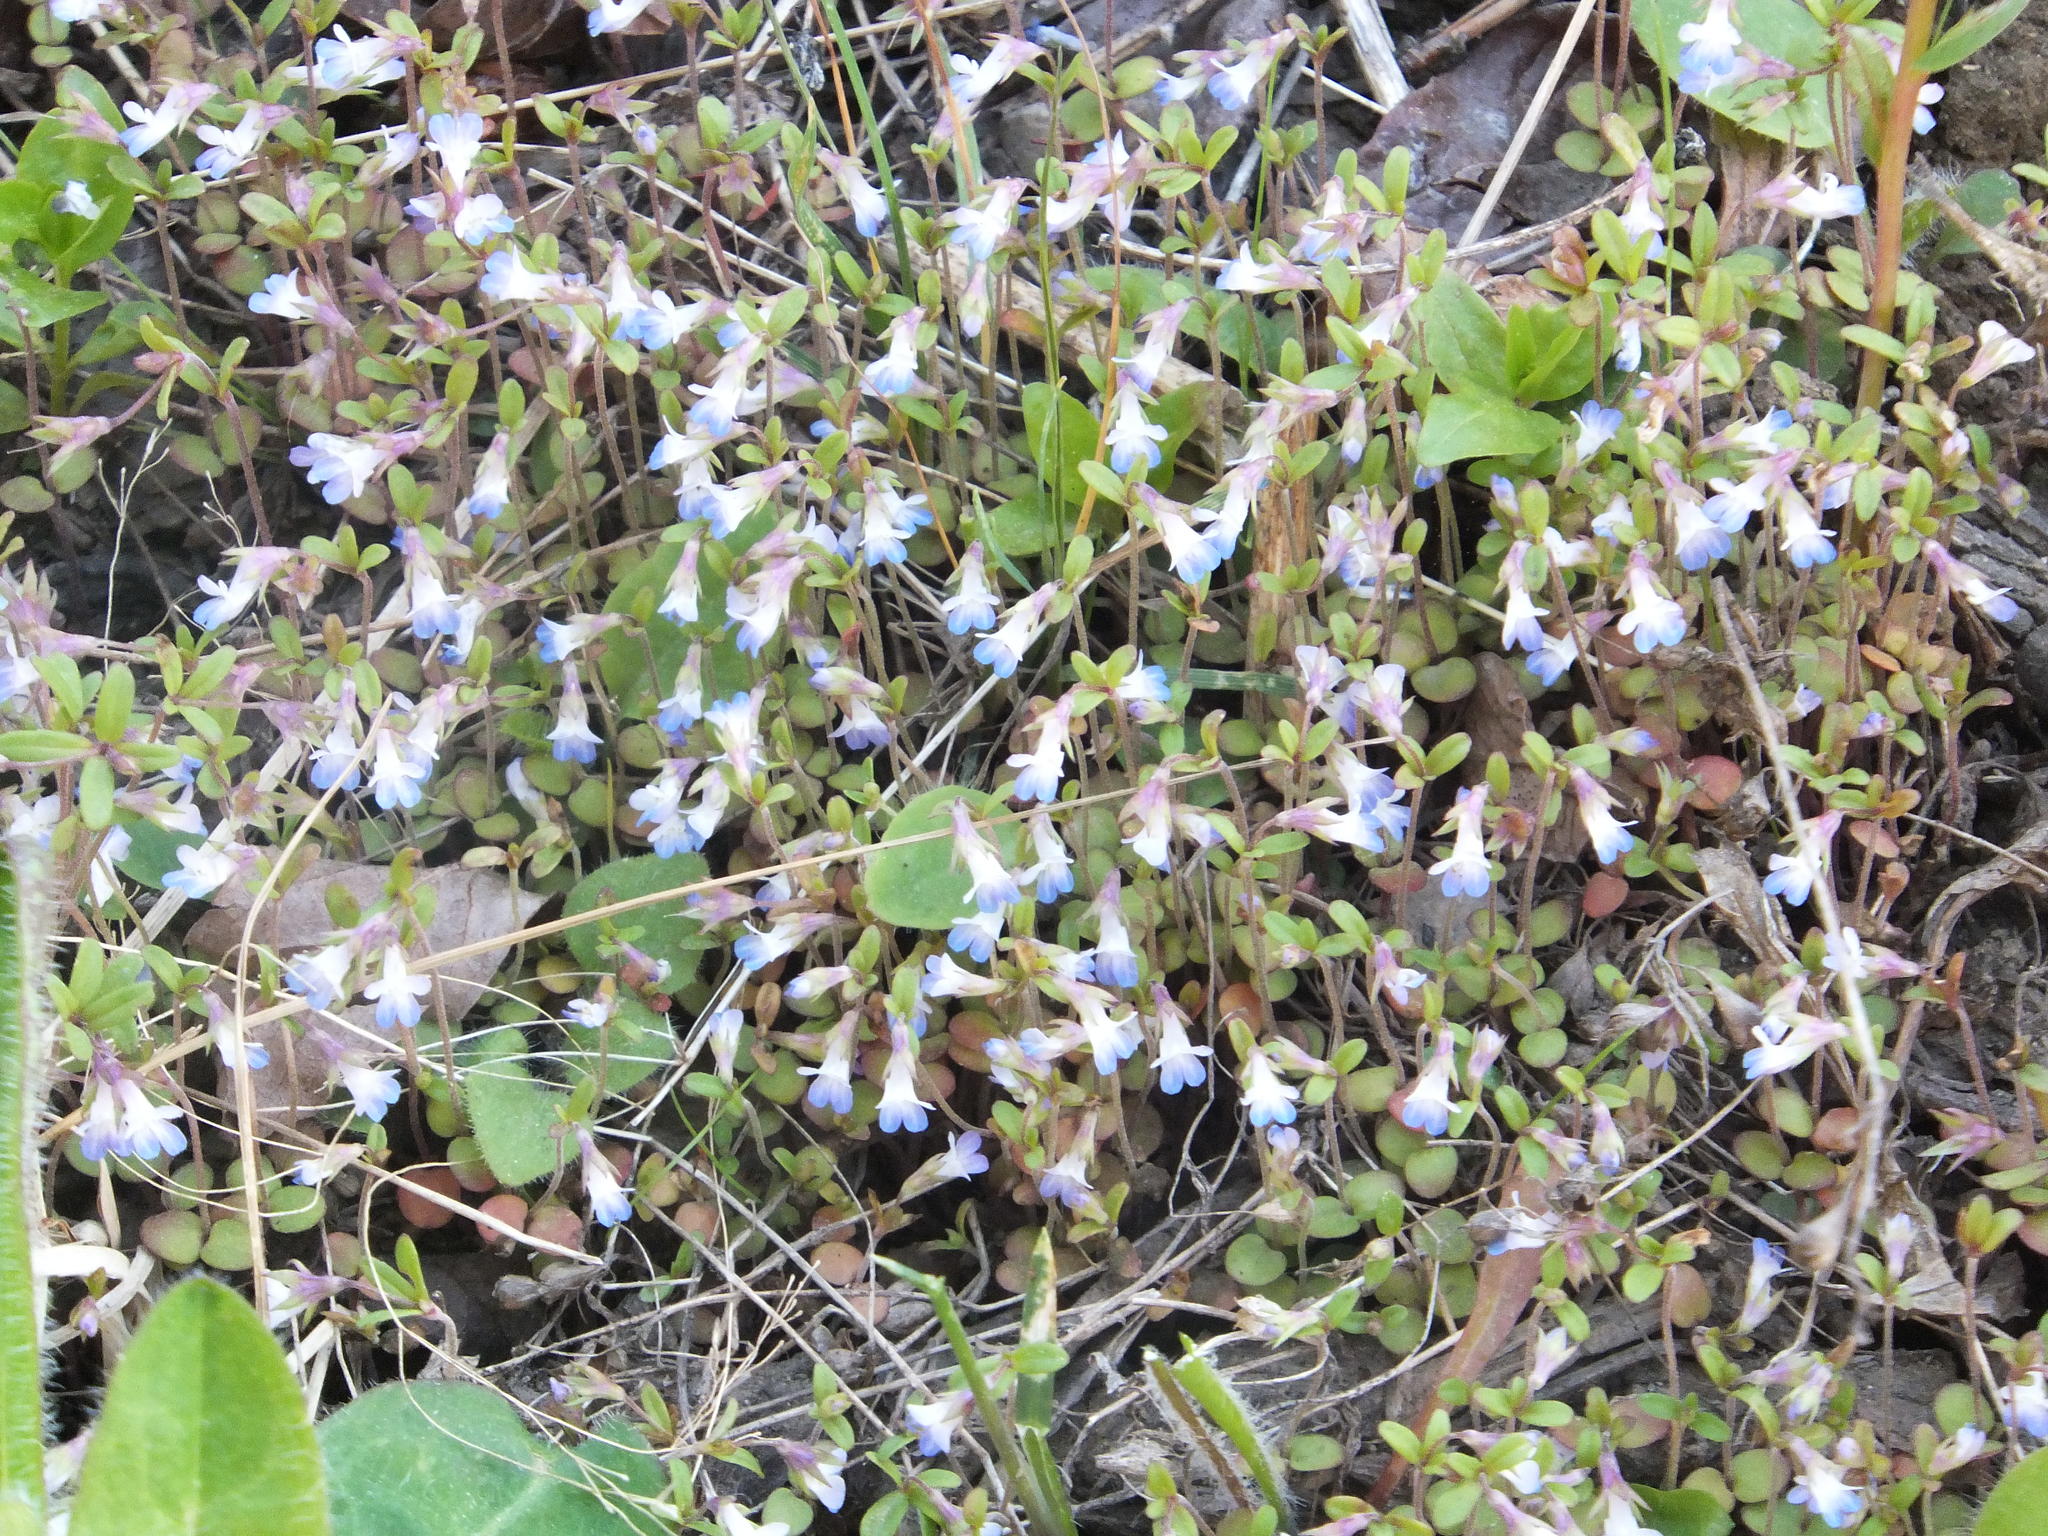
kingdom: Plantae
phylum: Tracheophyta
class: Magnoliopsida
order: Lamiales
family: Plantaginaceae
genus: Collinsia
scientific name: Collinsia parviflora
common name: Blue-lips
